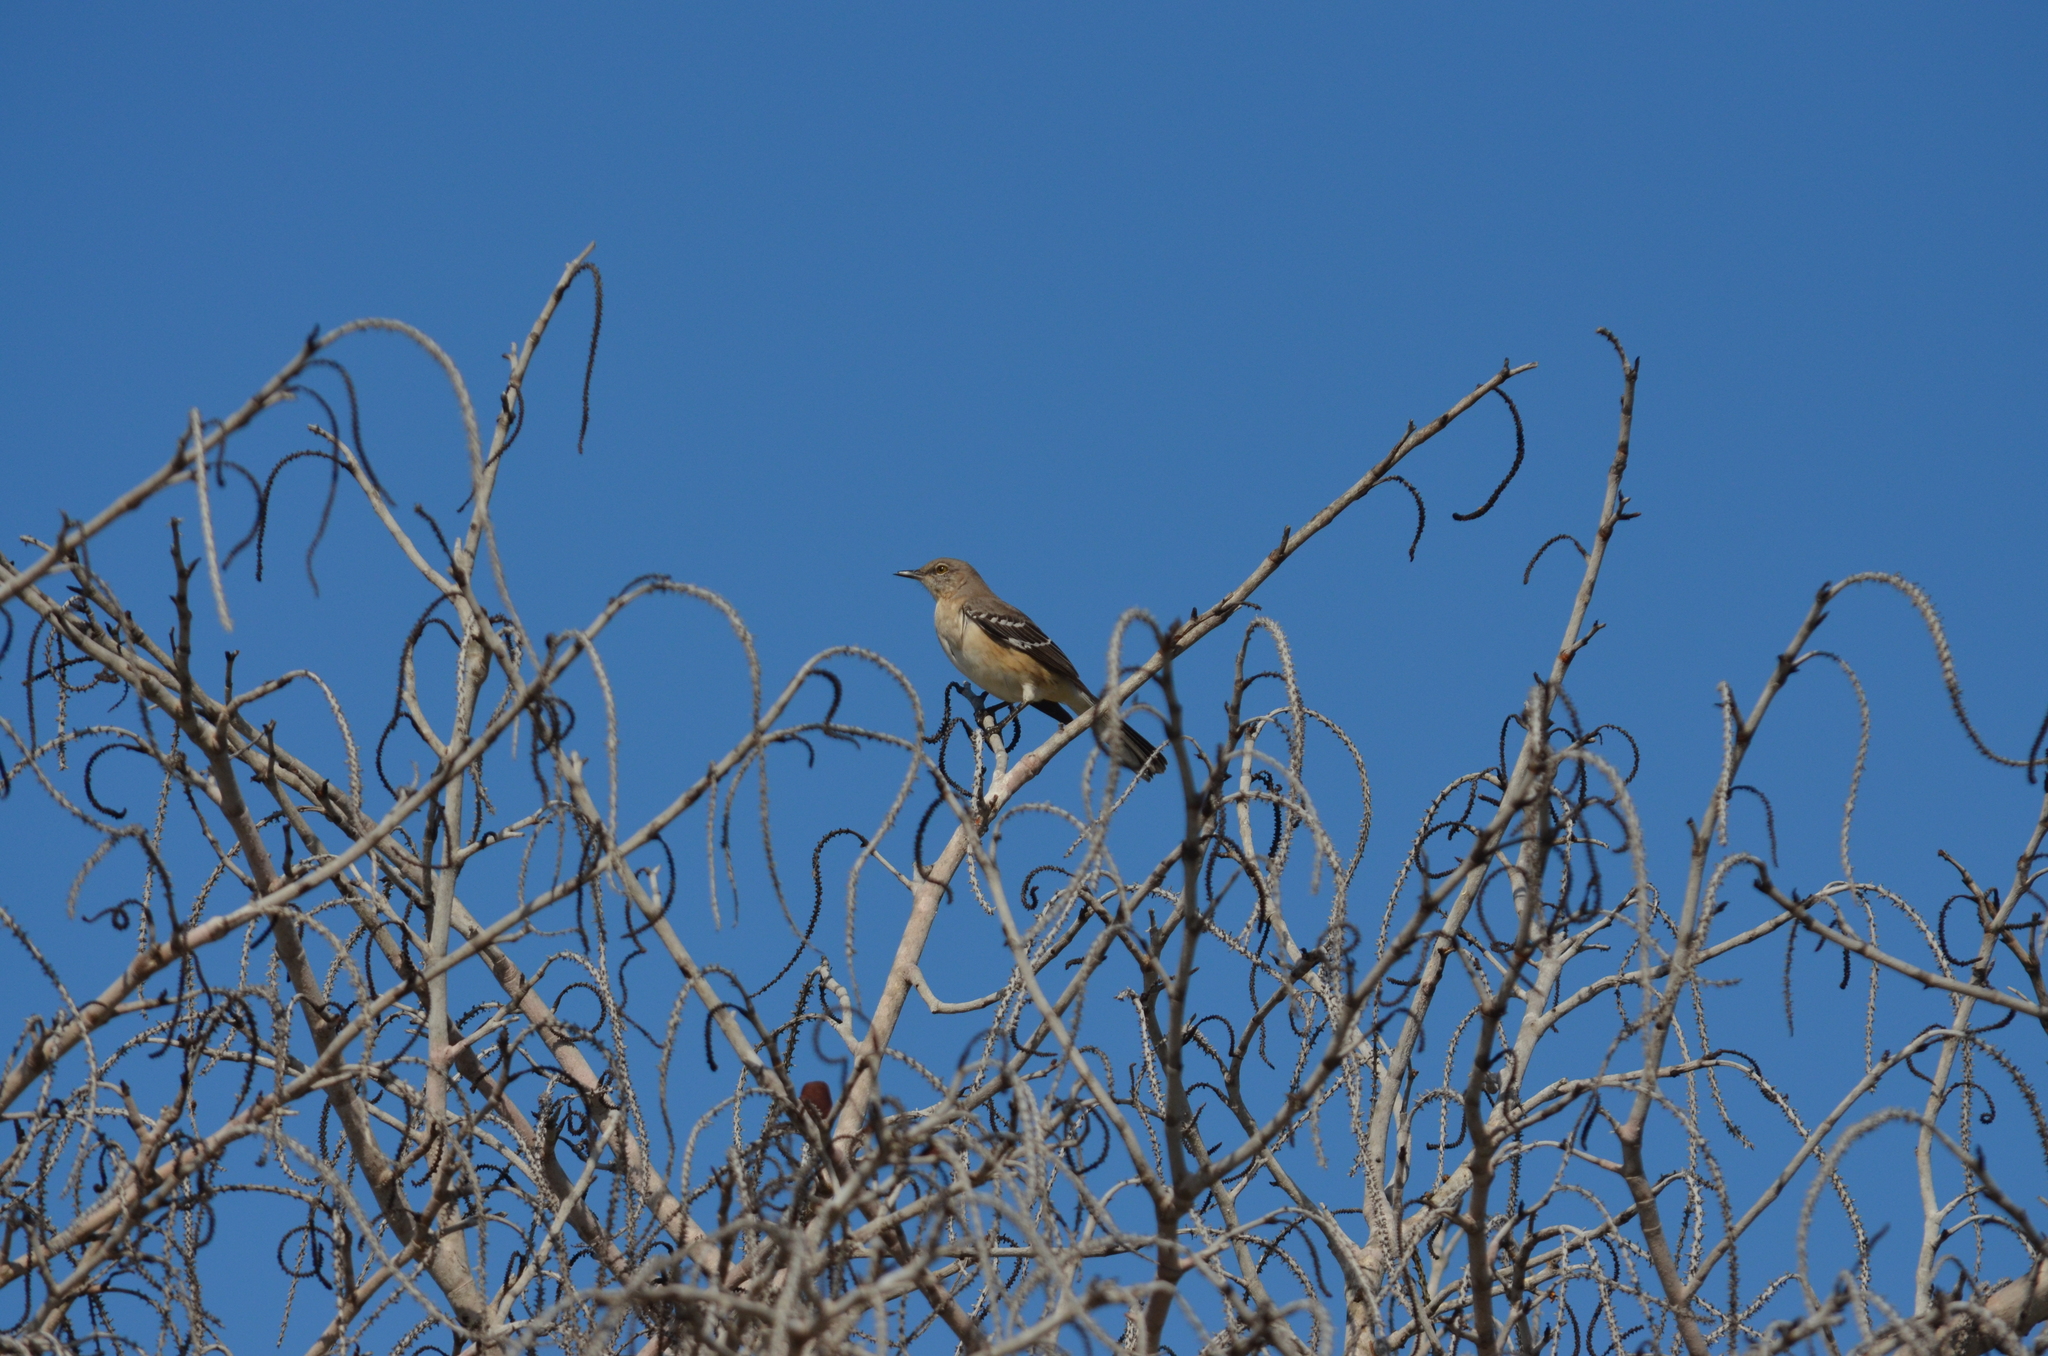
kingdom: Animalia
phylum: Chordata
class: Aves
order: Passeriformes
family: Mimidae
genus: Mimus
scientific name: Mimus polyglottos
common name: Northern mockingbird
